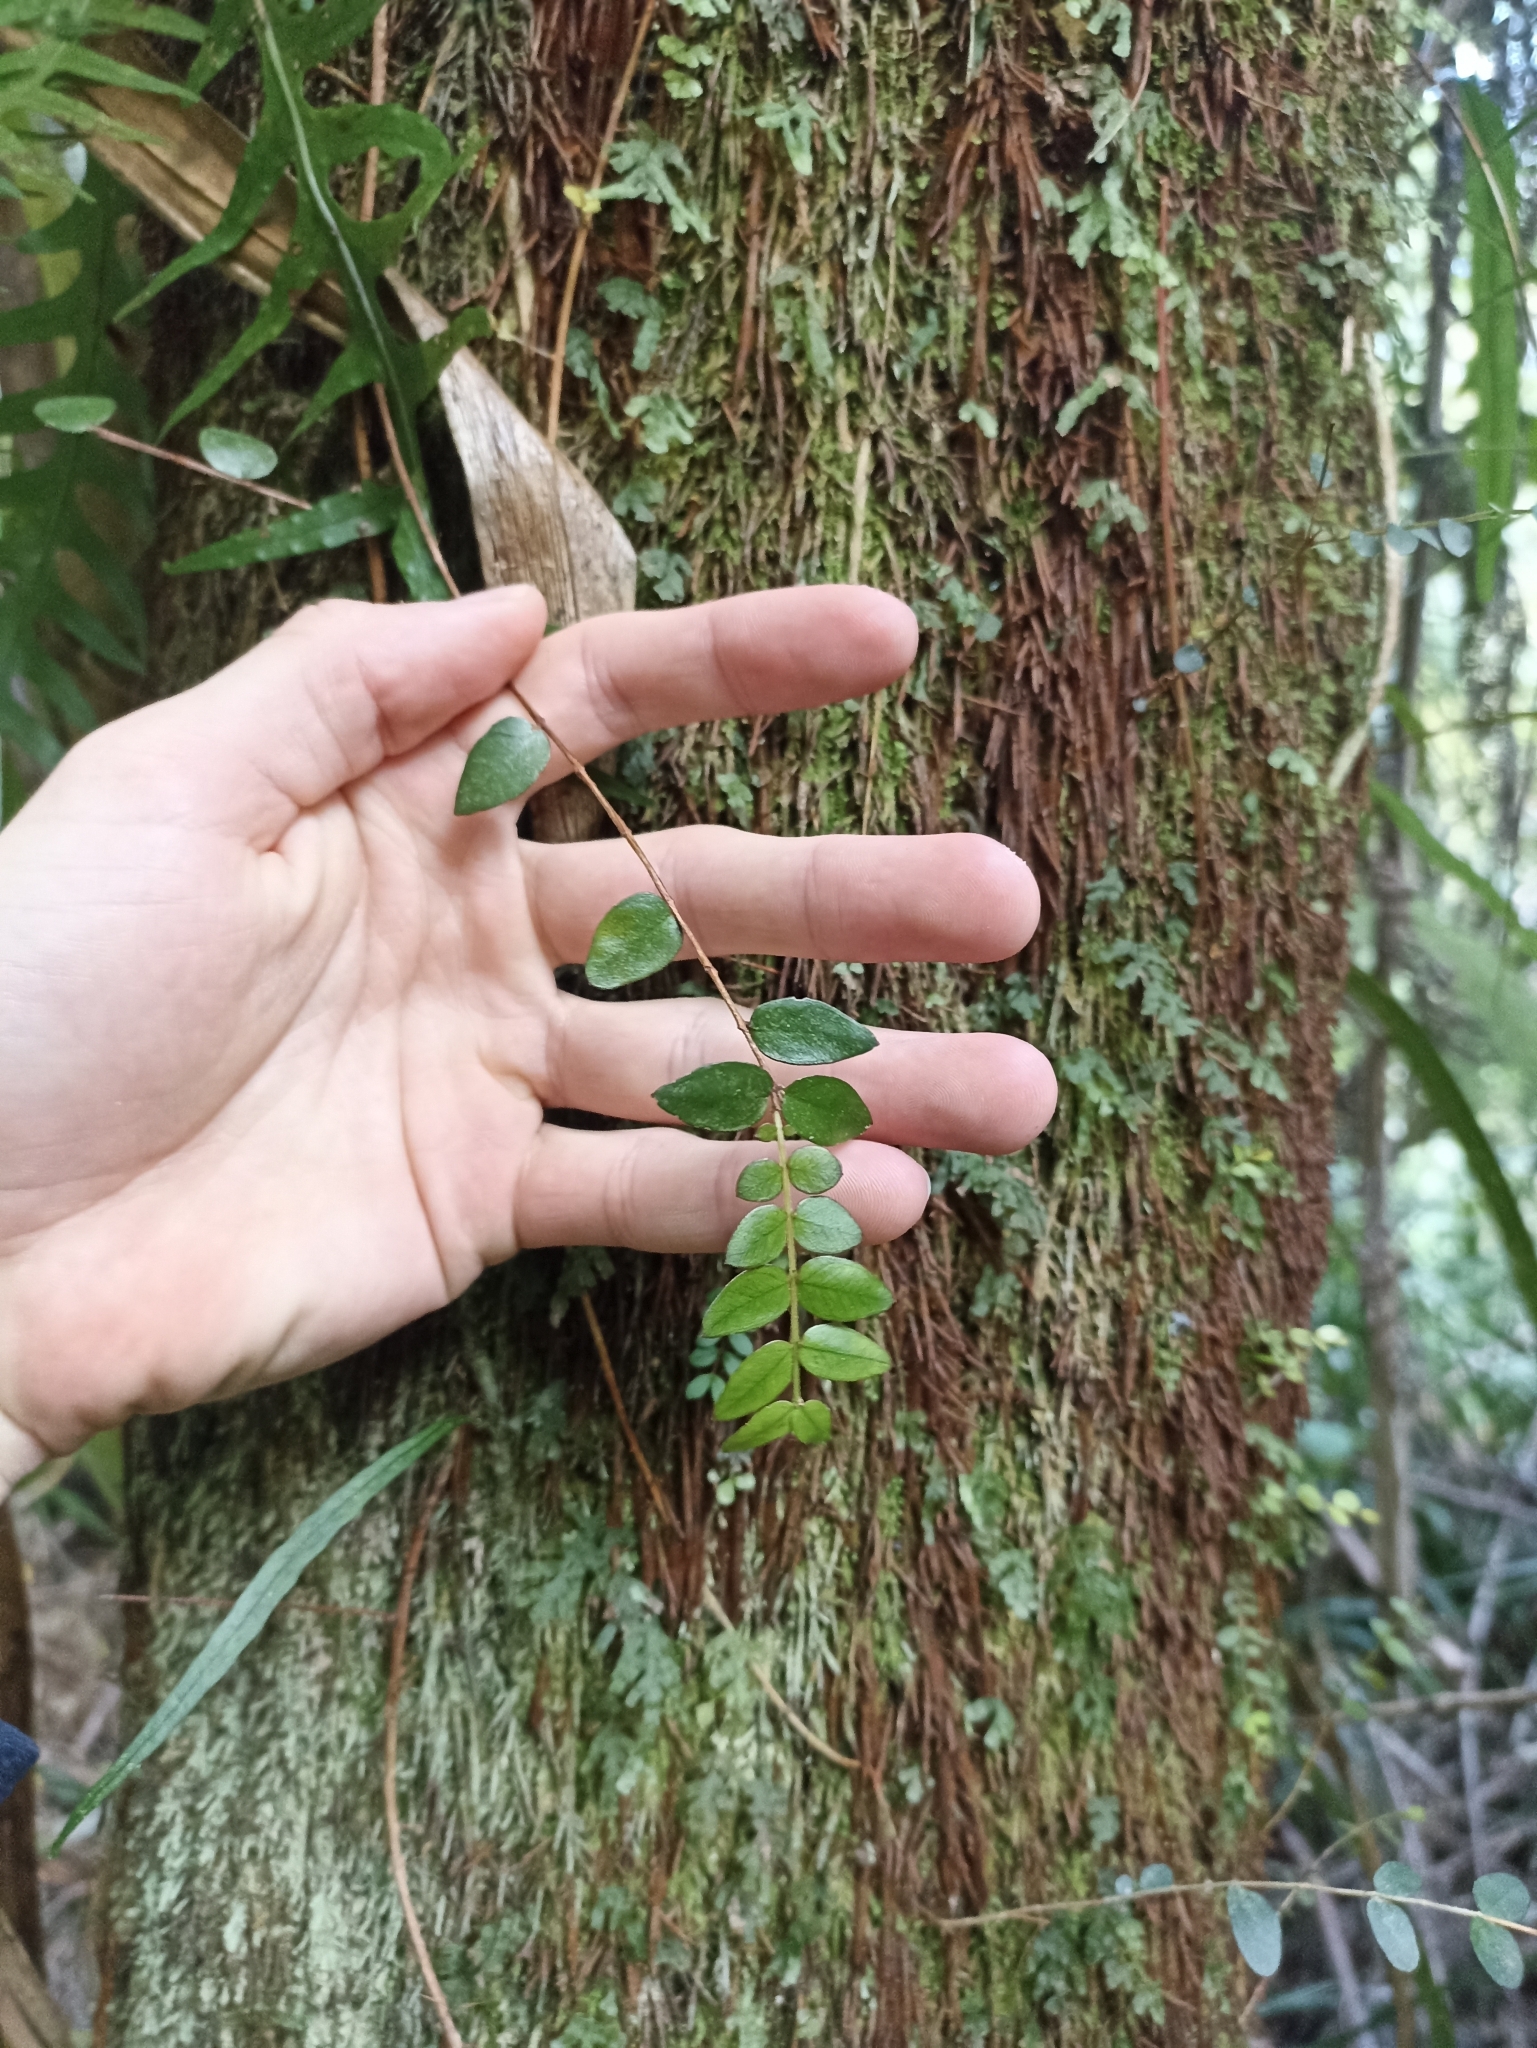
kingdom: Plantae
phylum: Tracheophyta
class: Magnoliopsida
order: Myrtales
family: Myrtaceae
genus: Metrosideros
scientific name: Metrosideros diffusa
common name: Small ratavine
